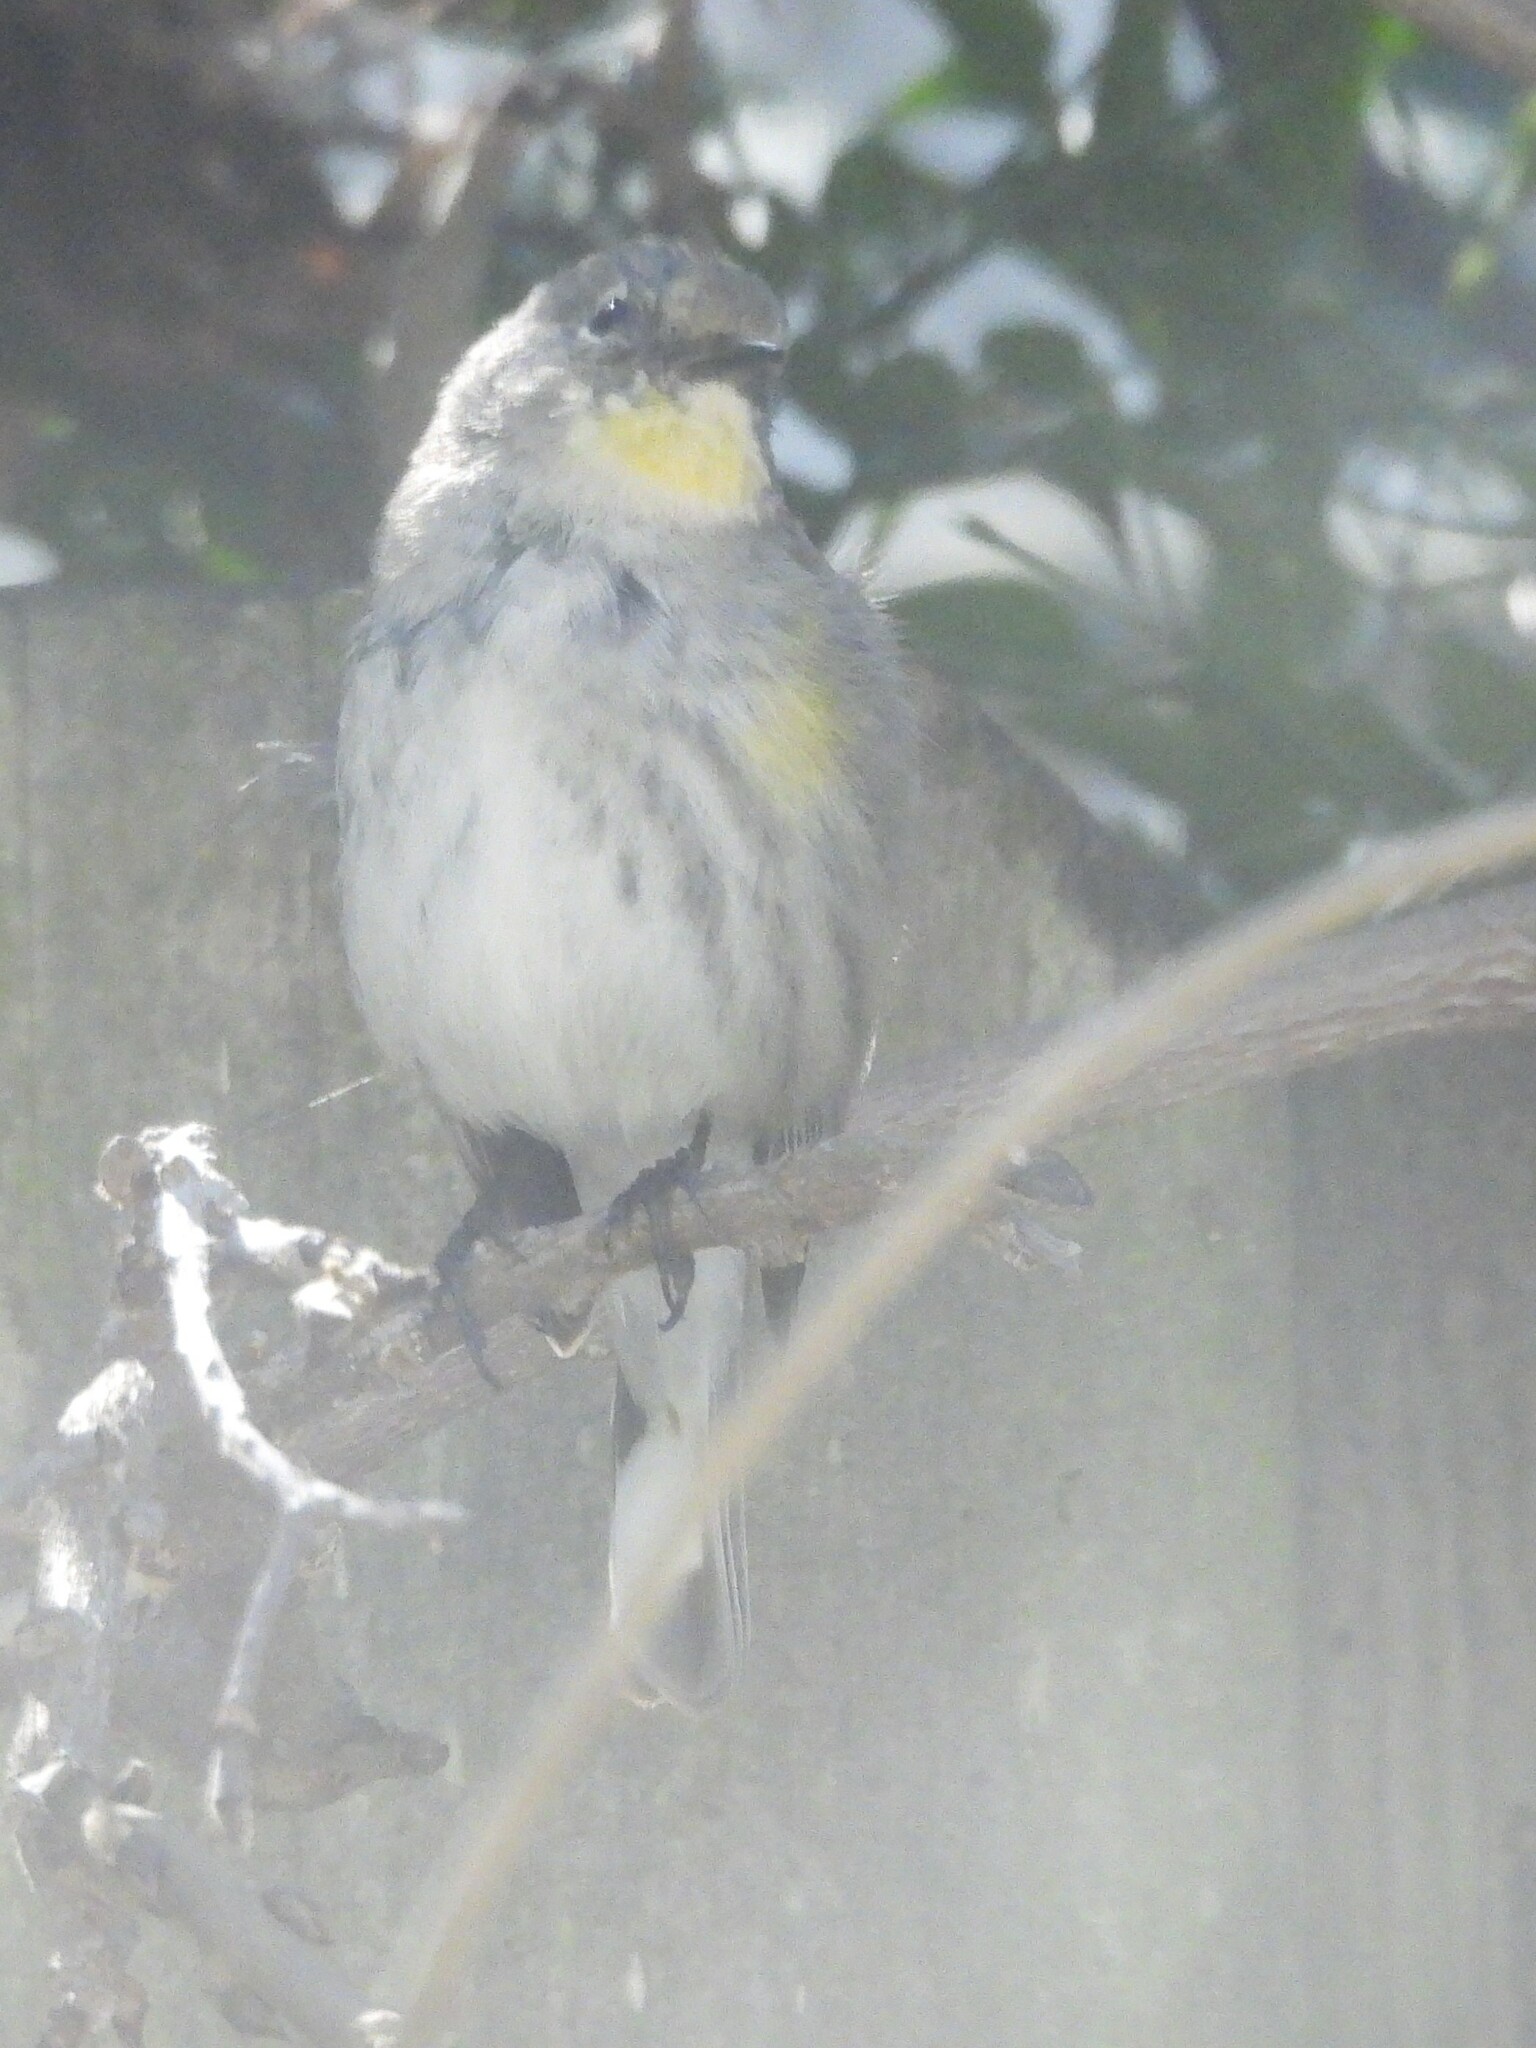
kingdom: Animalia
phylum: Chordata
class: Aves
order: Passeriformes
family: Parulidae
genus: Setophaga
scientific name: Setophaga coronata
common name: Myrtle warbler
